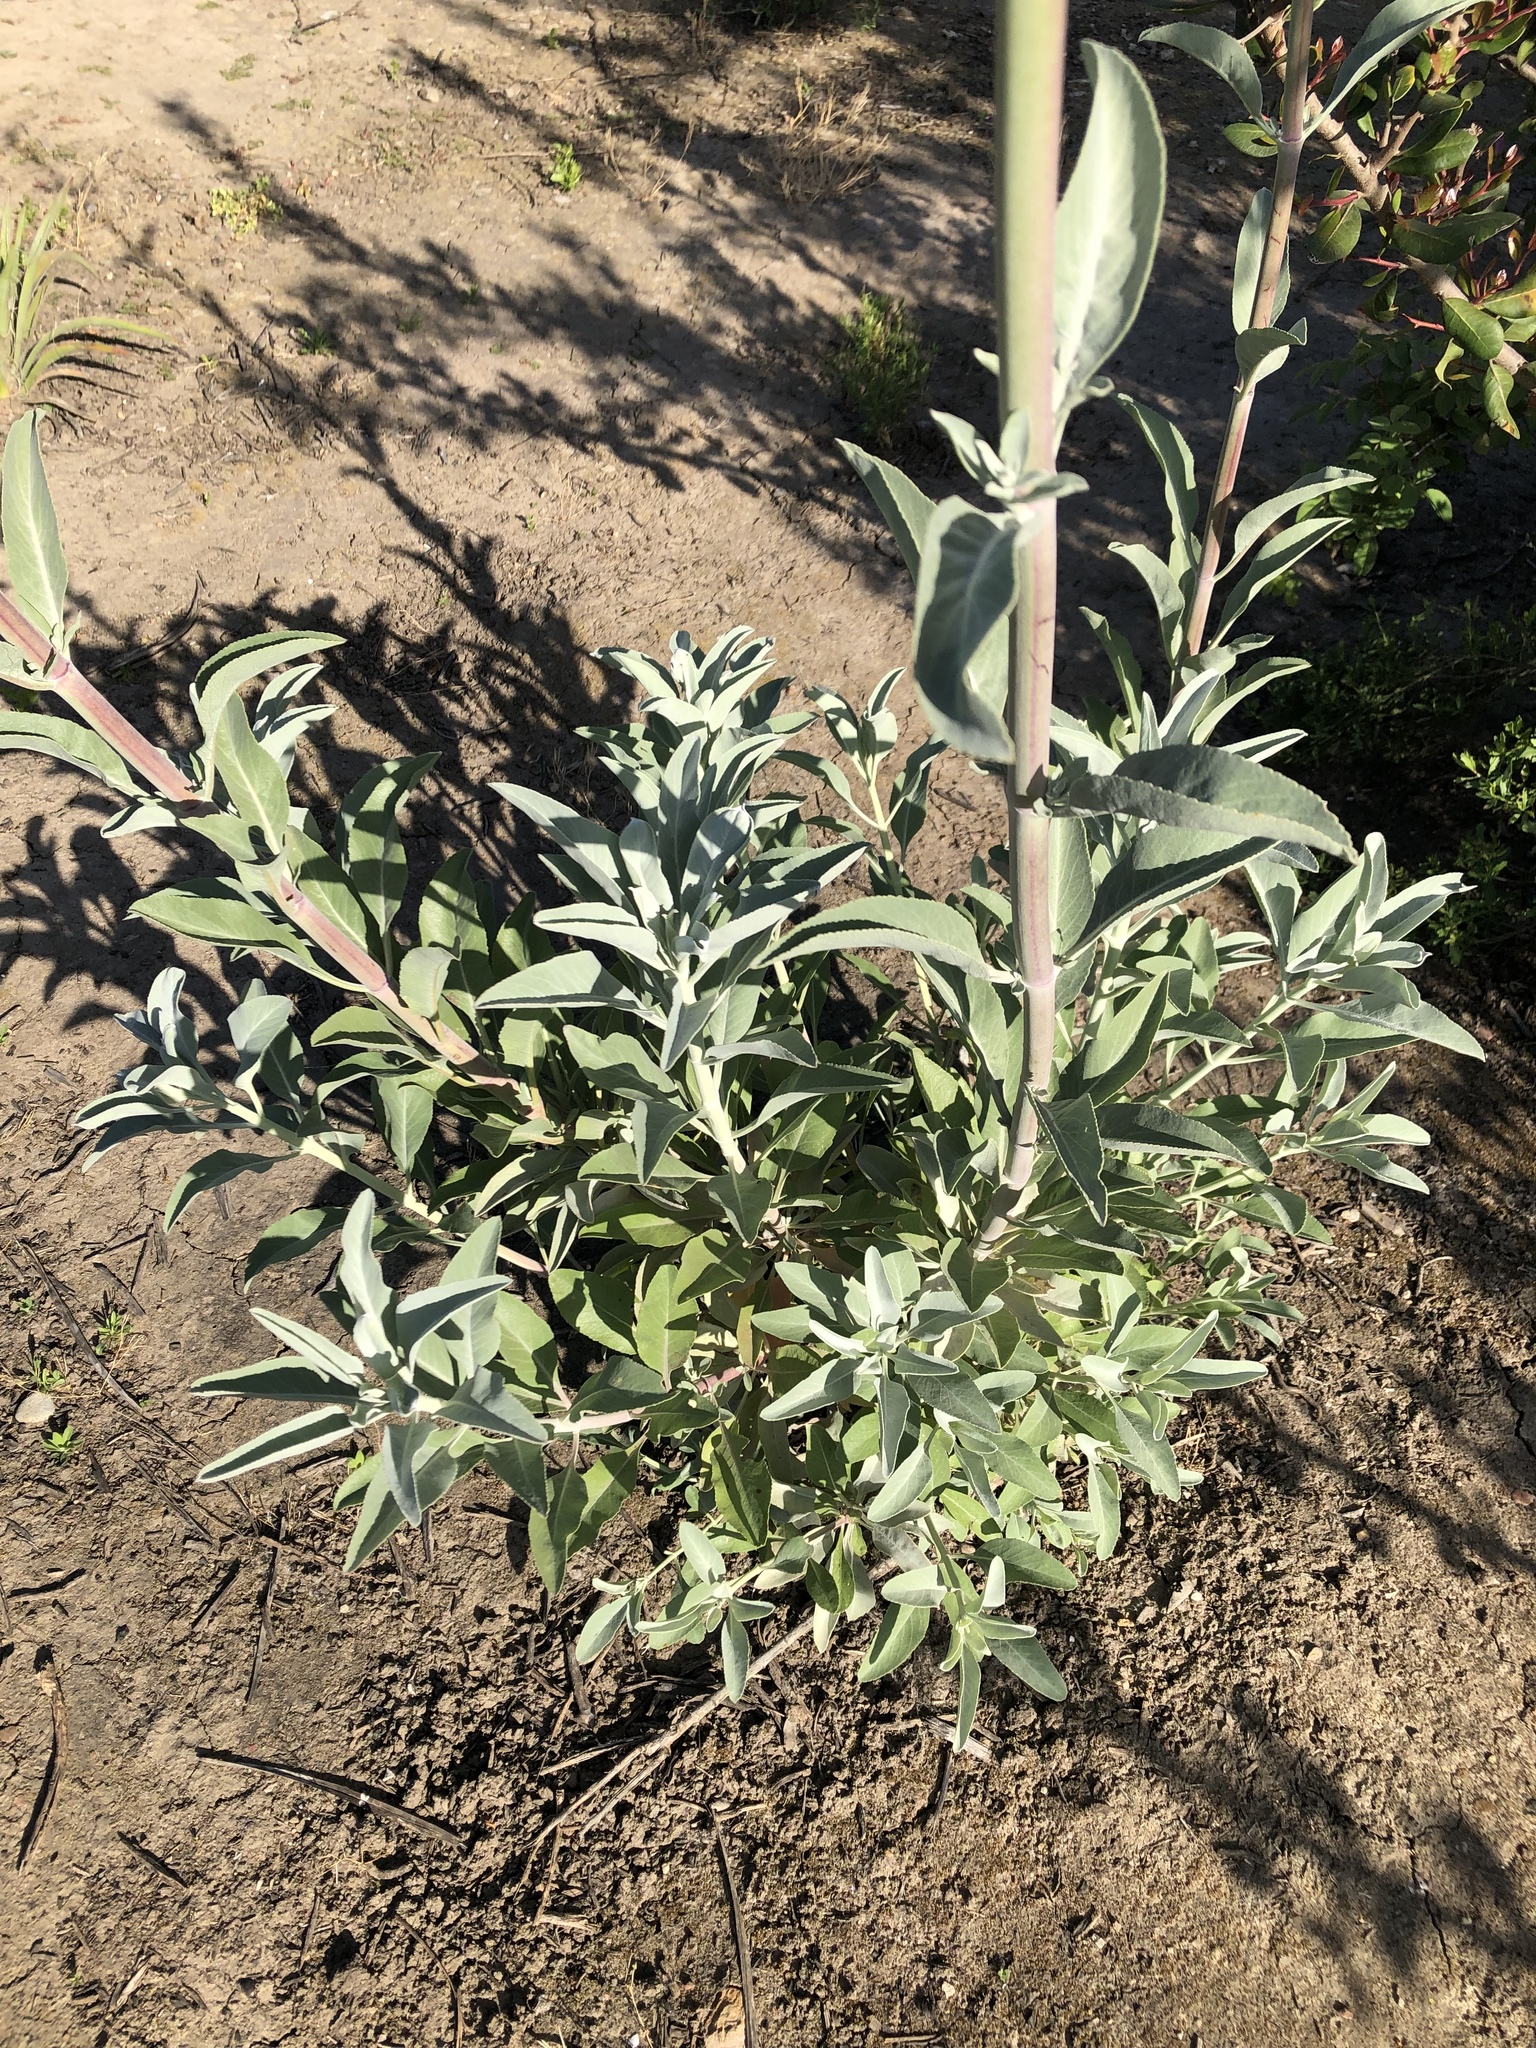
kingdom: Plantae
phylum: Tracheophyta
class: Magnoliopsida
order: Lamiales
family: Lamiaceae
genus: Salvia
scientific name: Salvia apiana
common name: White sage
